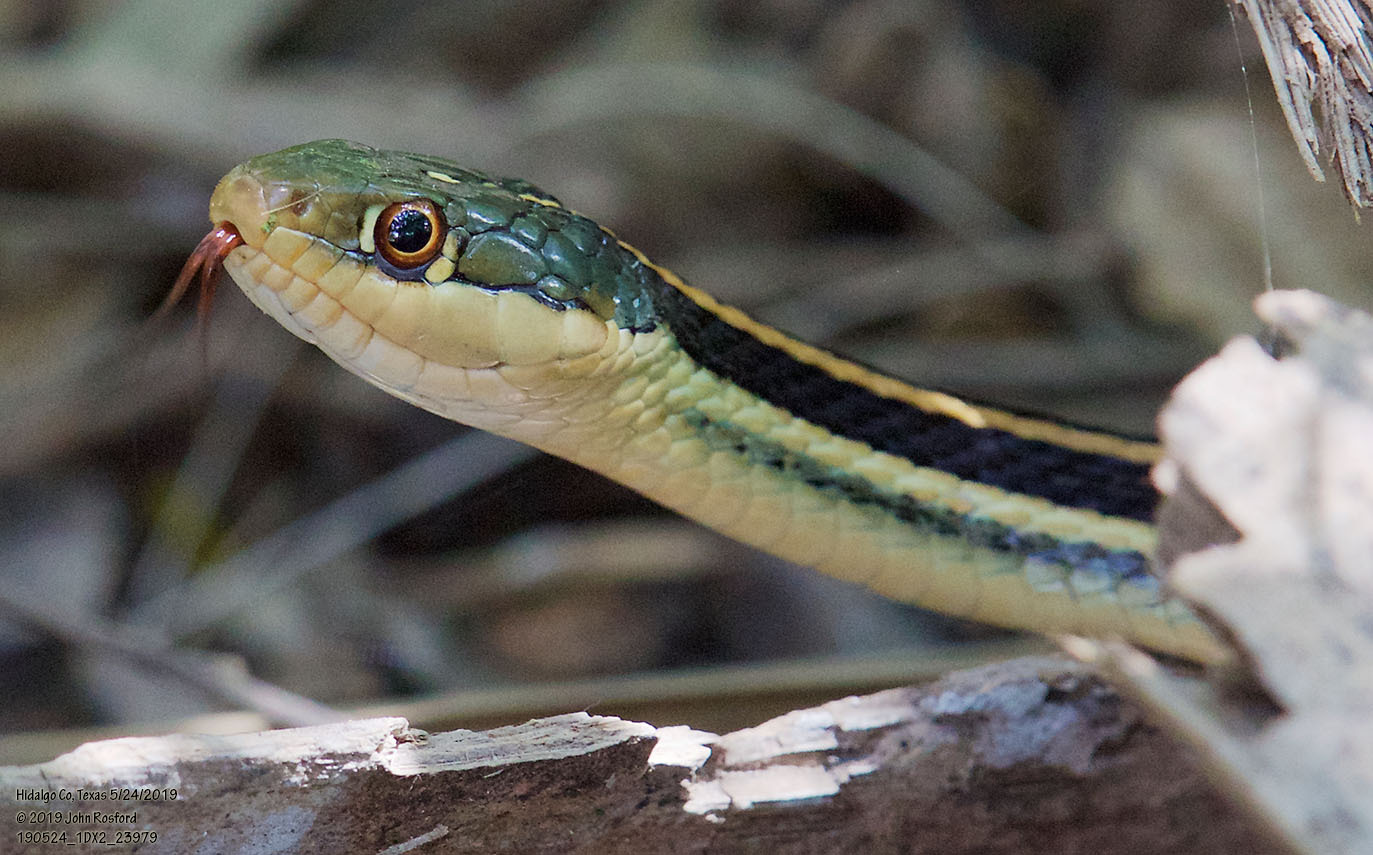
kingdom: Animalia
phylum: Chordata
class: Squamata
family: Colubridae
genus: Thamnophis
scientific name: Thamnophis proximus
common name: Western ribbon snake
